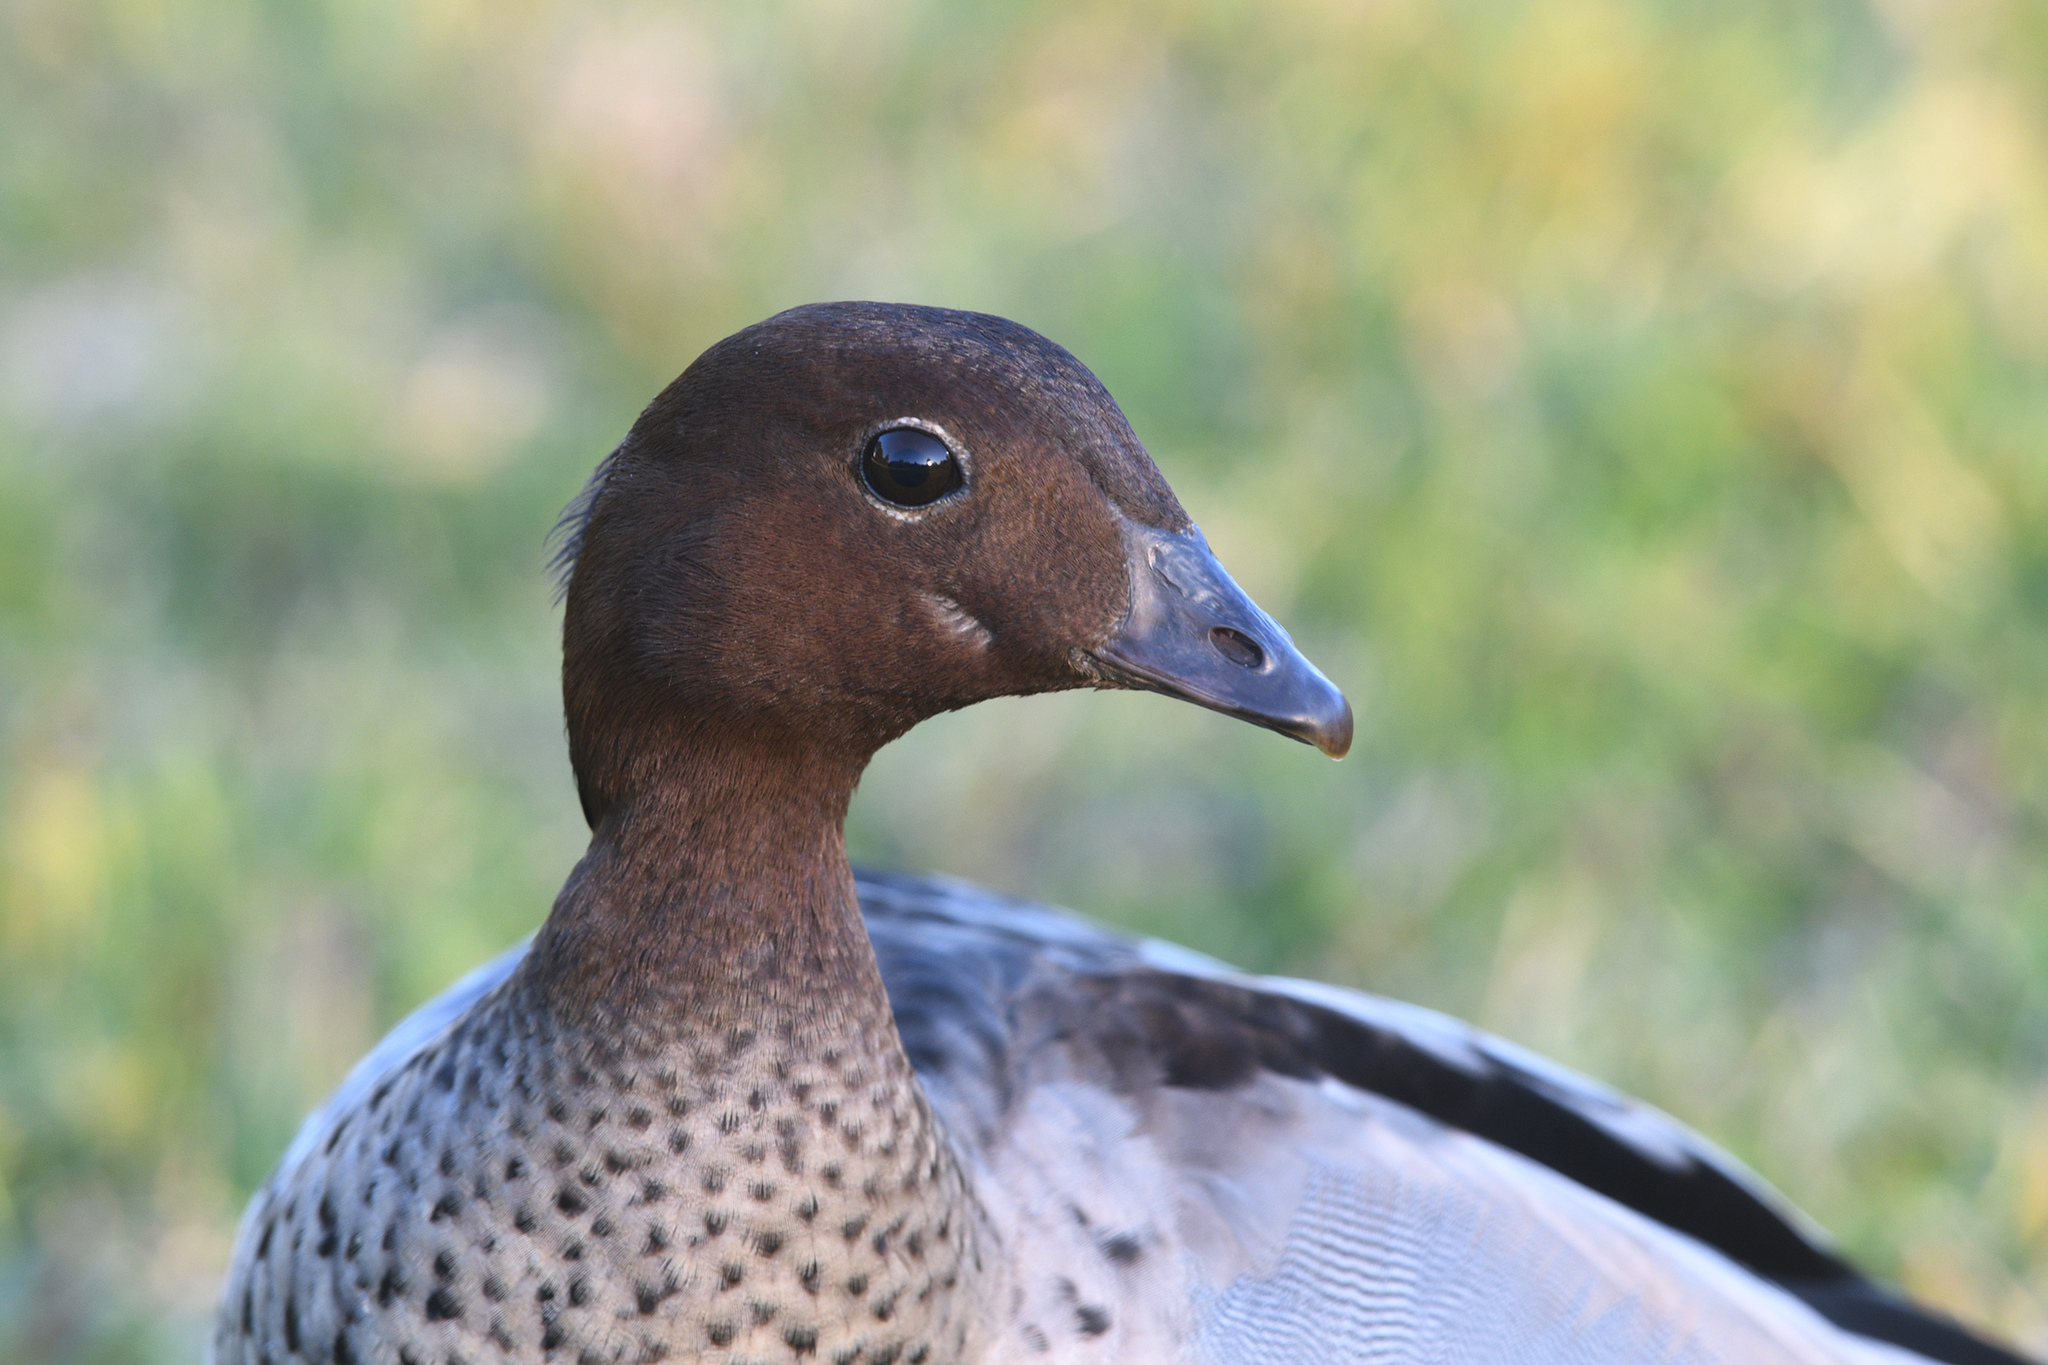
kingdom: Animalia
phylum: Chordata
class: Aves
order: Anseriformes
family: Anatidae
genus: Chenonetta
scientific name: Chenonetta jubata
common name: Maned duck
